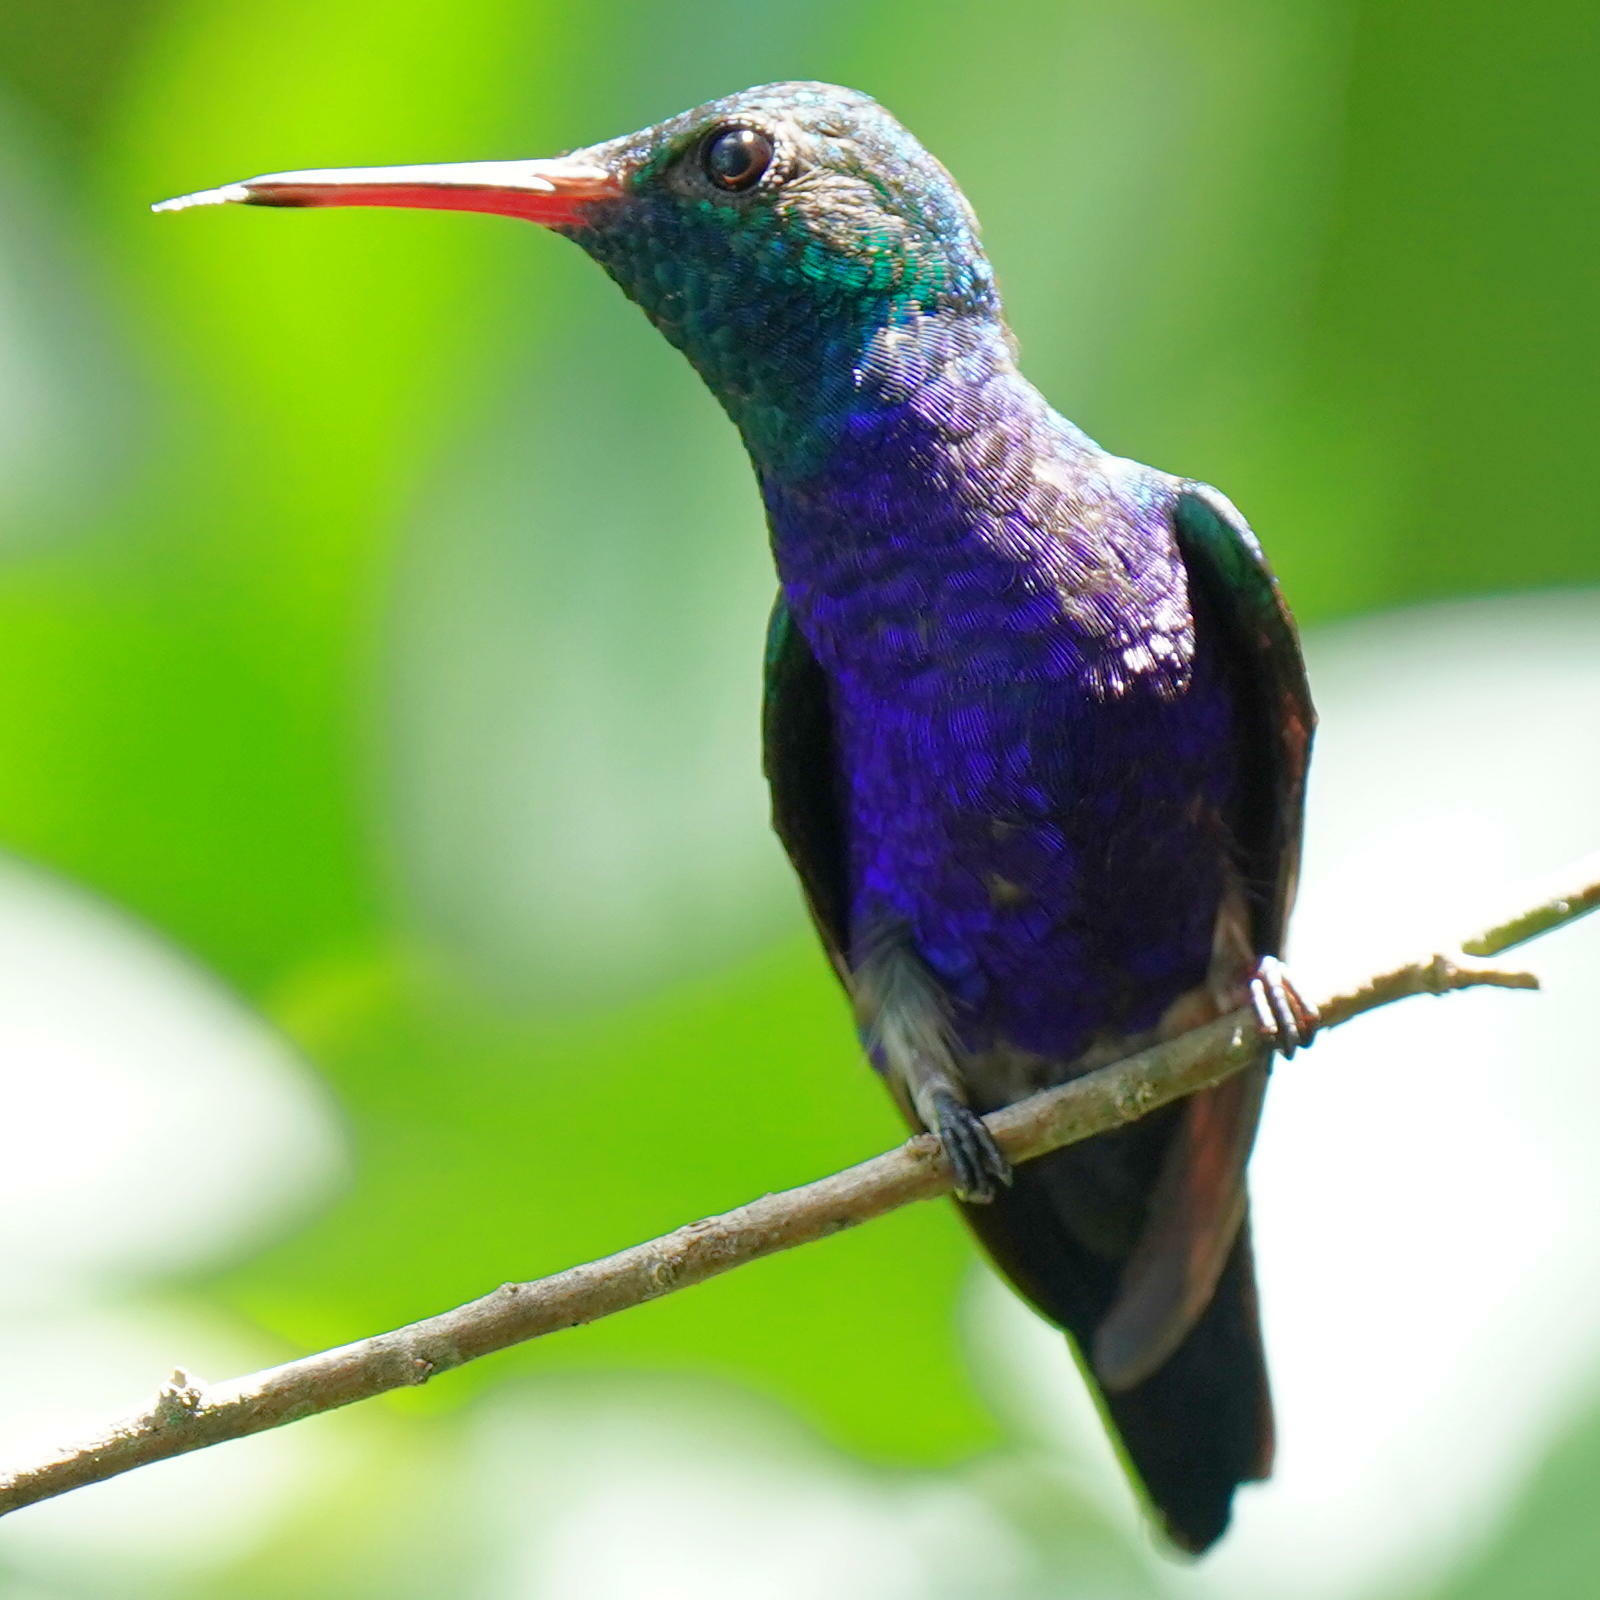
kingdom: Animalia
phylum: Chordata
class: Aves
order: Apodiformes
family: Trochilidae
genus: Chlorestes
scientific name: Chlorestes julie
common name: Violet-bellied hummingbird
